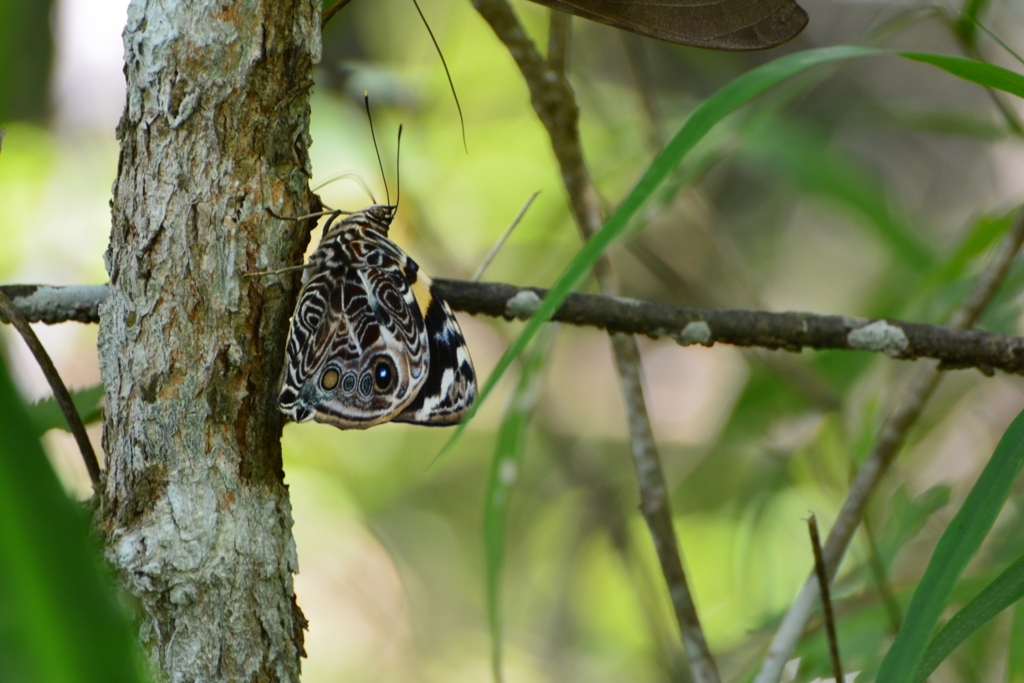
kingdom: Animalia
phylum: Arthropoda
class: Insecta
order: Lepidoptera
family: Nymphalidae
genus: Smyrna
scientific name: Smyrna blomfildia
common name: Blomfild's beauty
